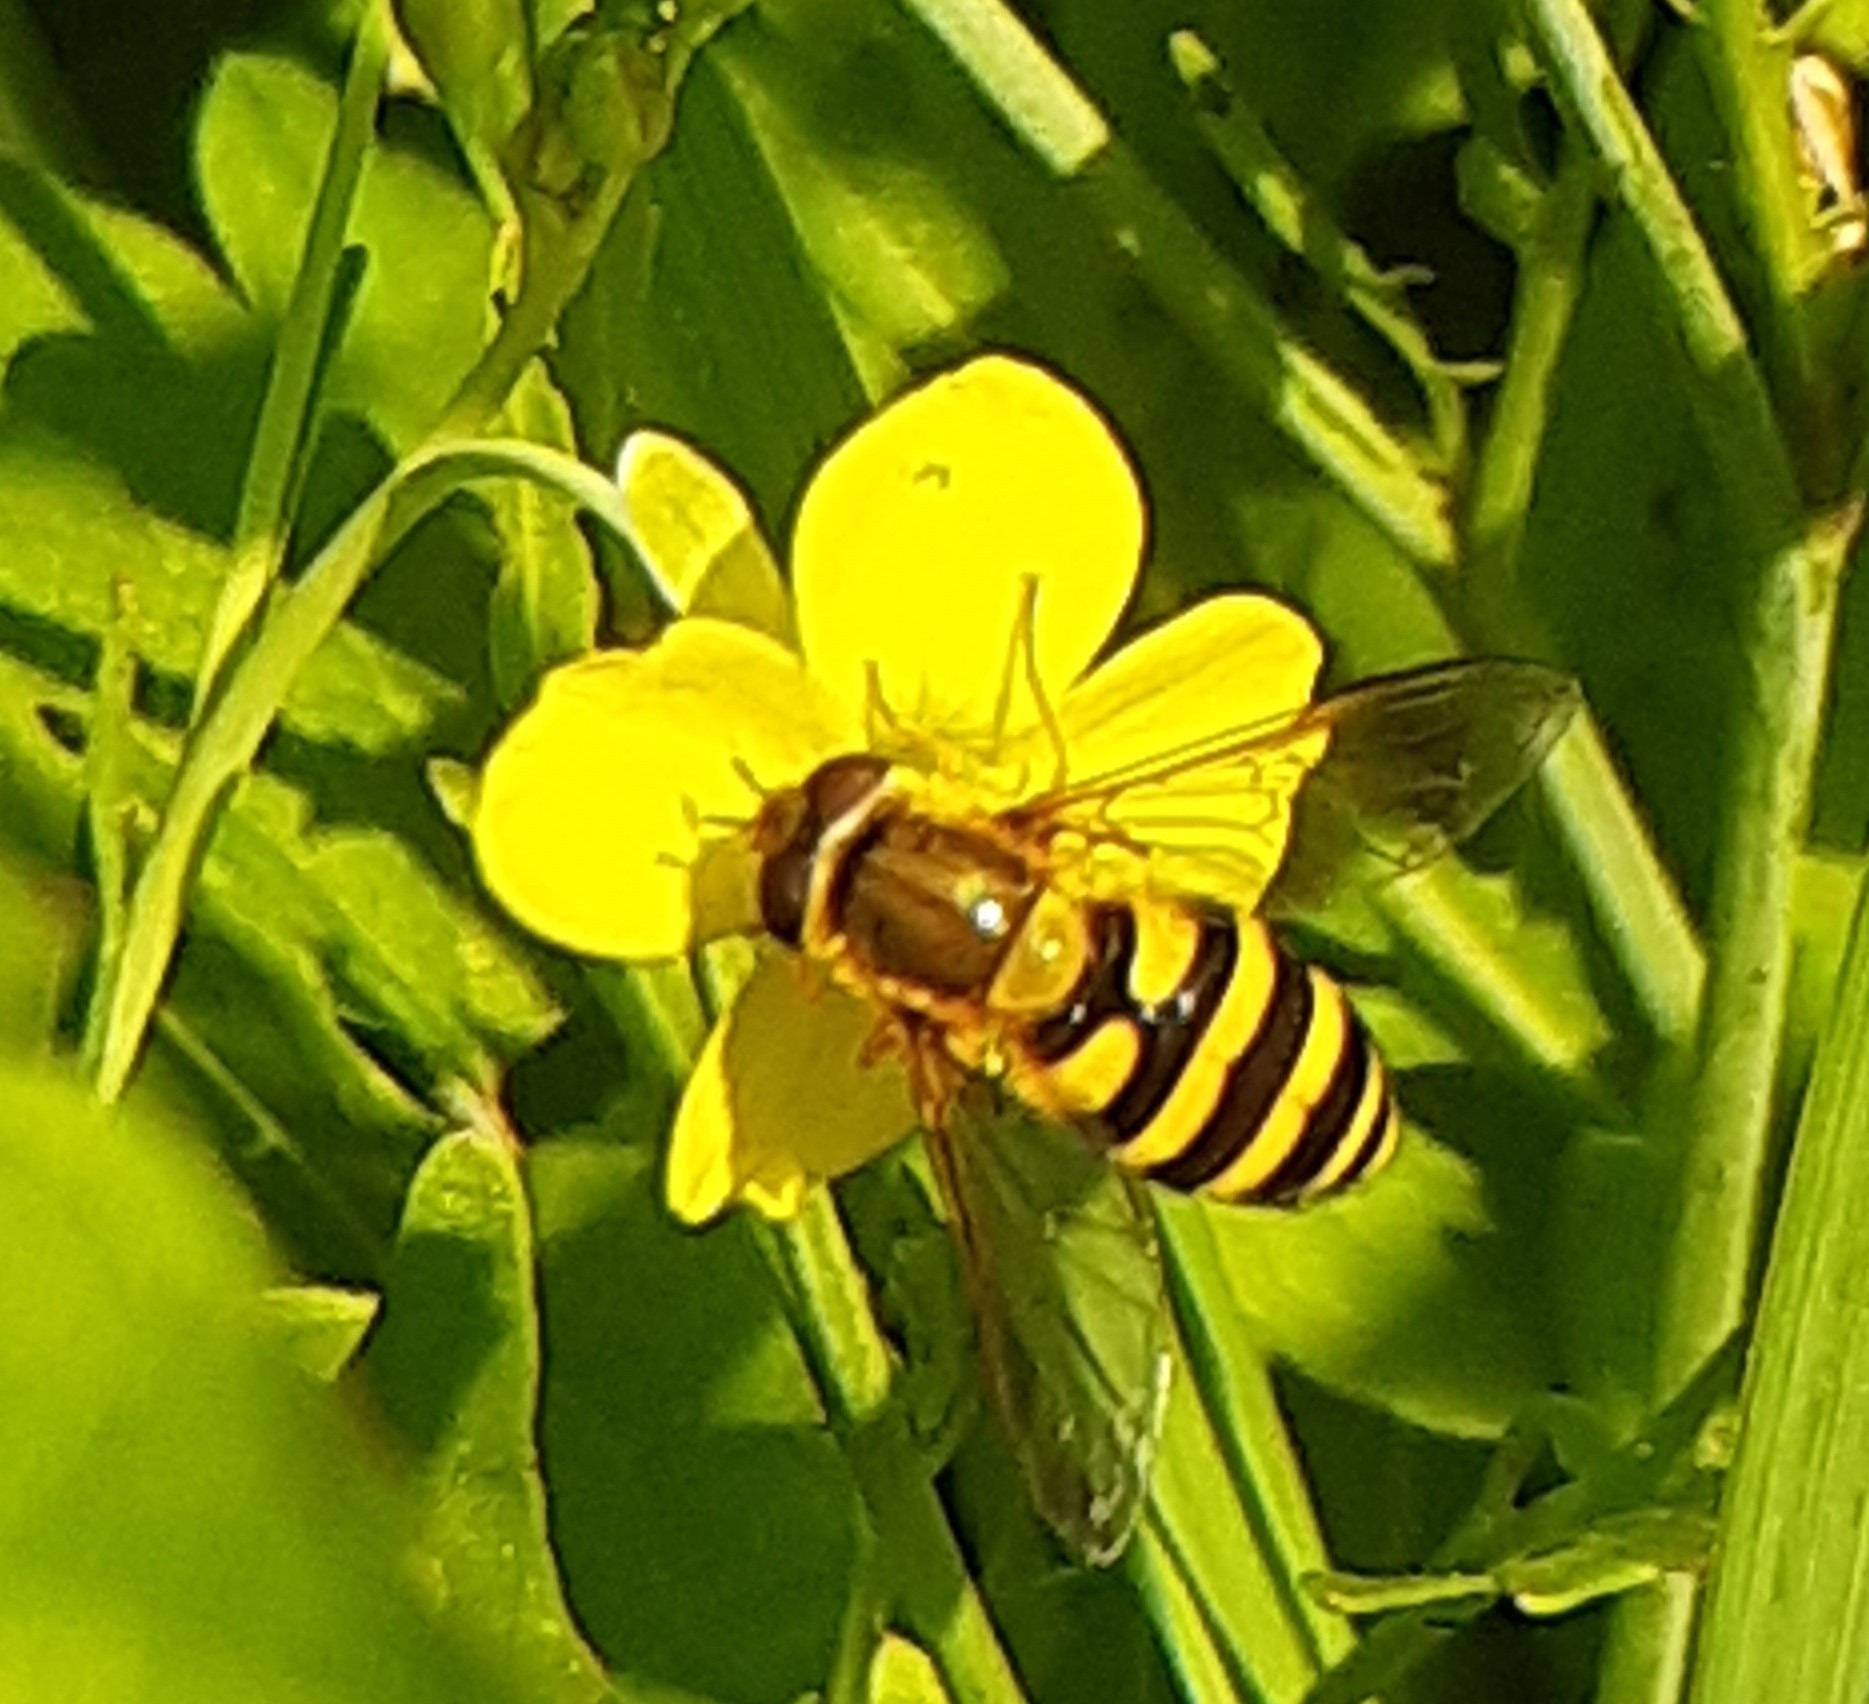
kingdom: Animalia
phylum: Arthropoda
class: Insecta
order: Diptera
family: Syrphidae
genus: Syrphus
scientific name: Syrphus
